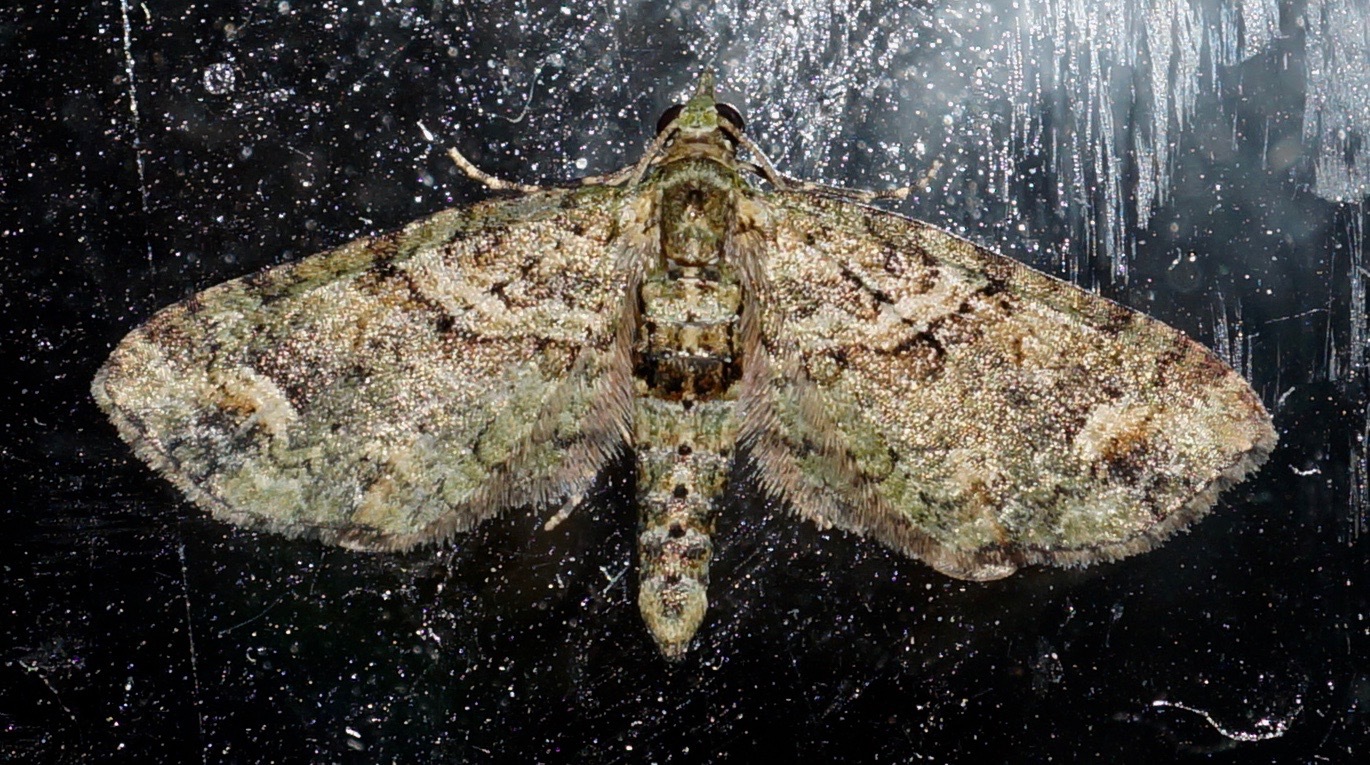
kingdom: Animalia
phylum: Arthropoda
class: Insecta
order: Lepidoptera
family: Geometridae
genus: Idaea
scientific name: Idaea mutanda
